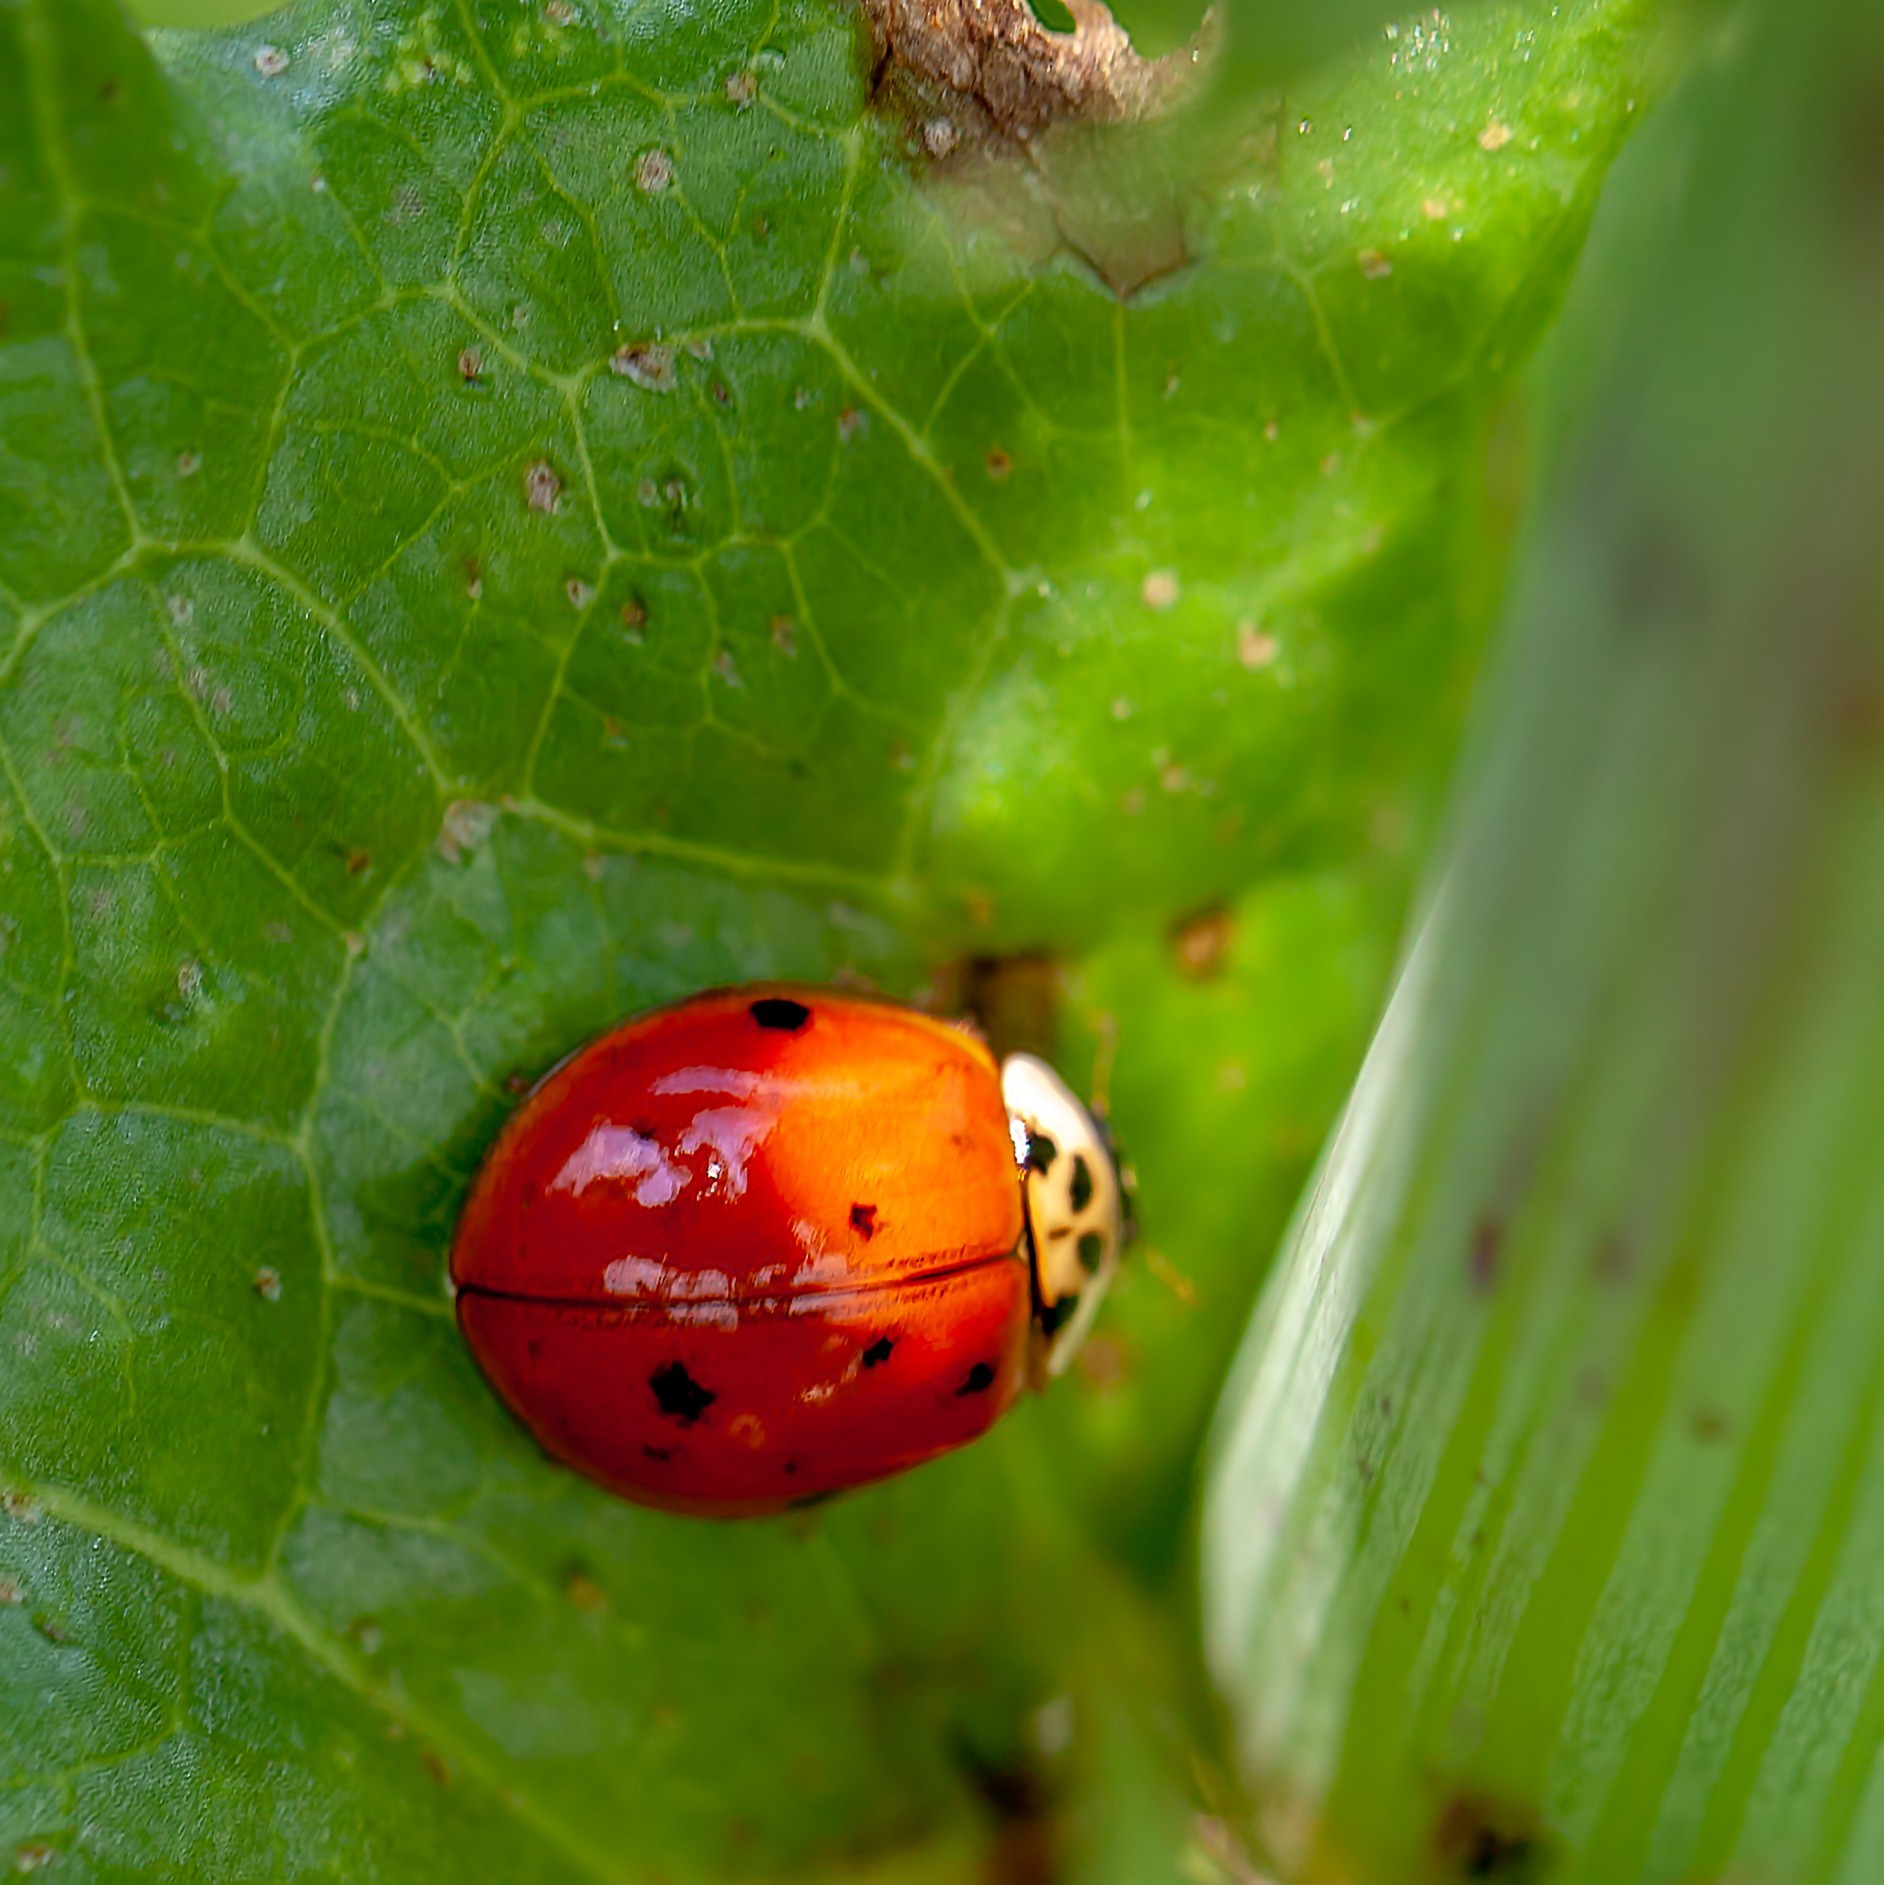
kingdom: Animalia
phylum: Arthropoda
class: Insecta
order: Coleoptera
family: Coccinellidae
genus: Harmonia
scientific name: Harmonia axyridis
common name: Harlequin ladybird
